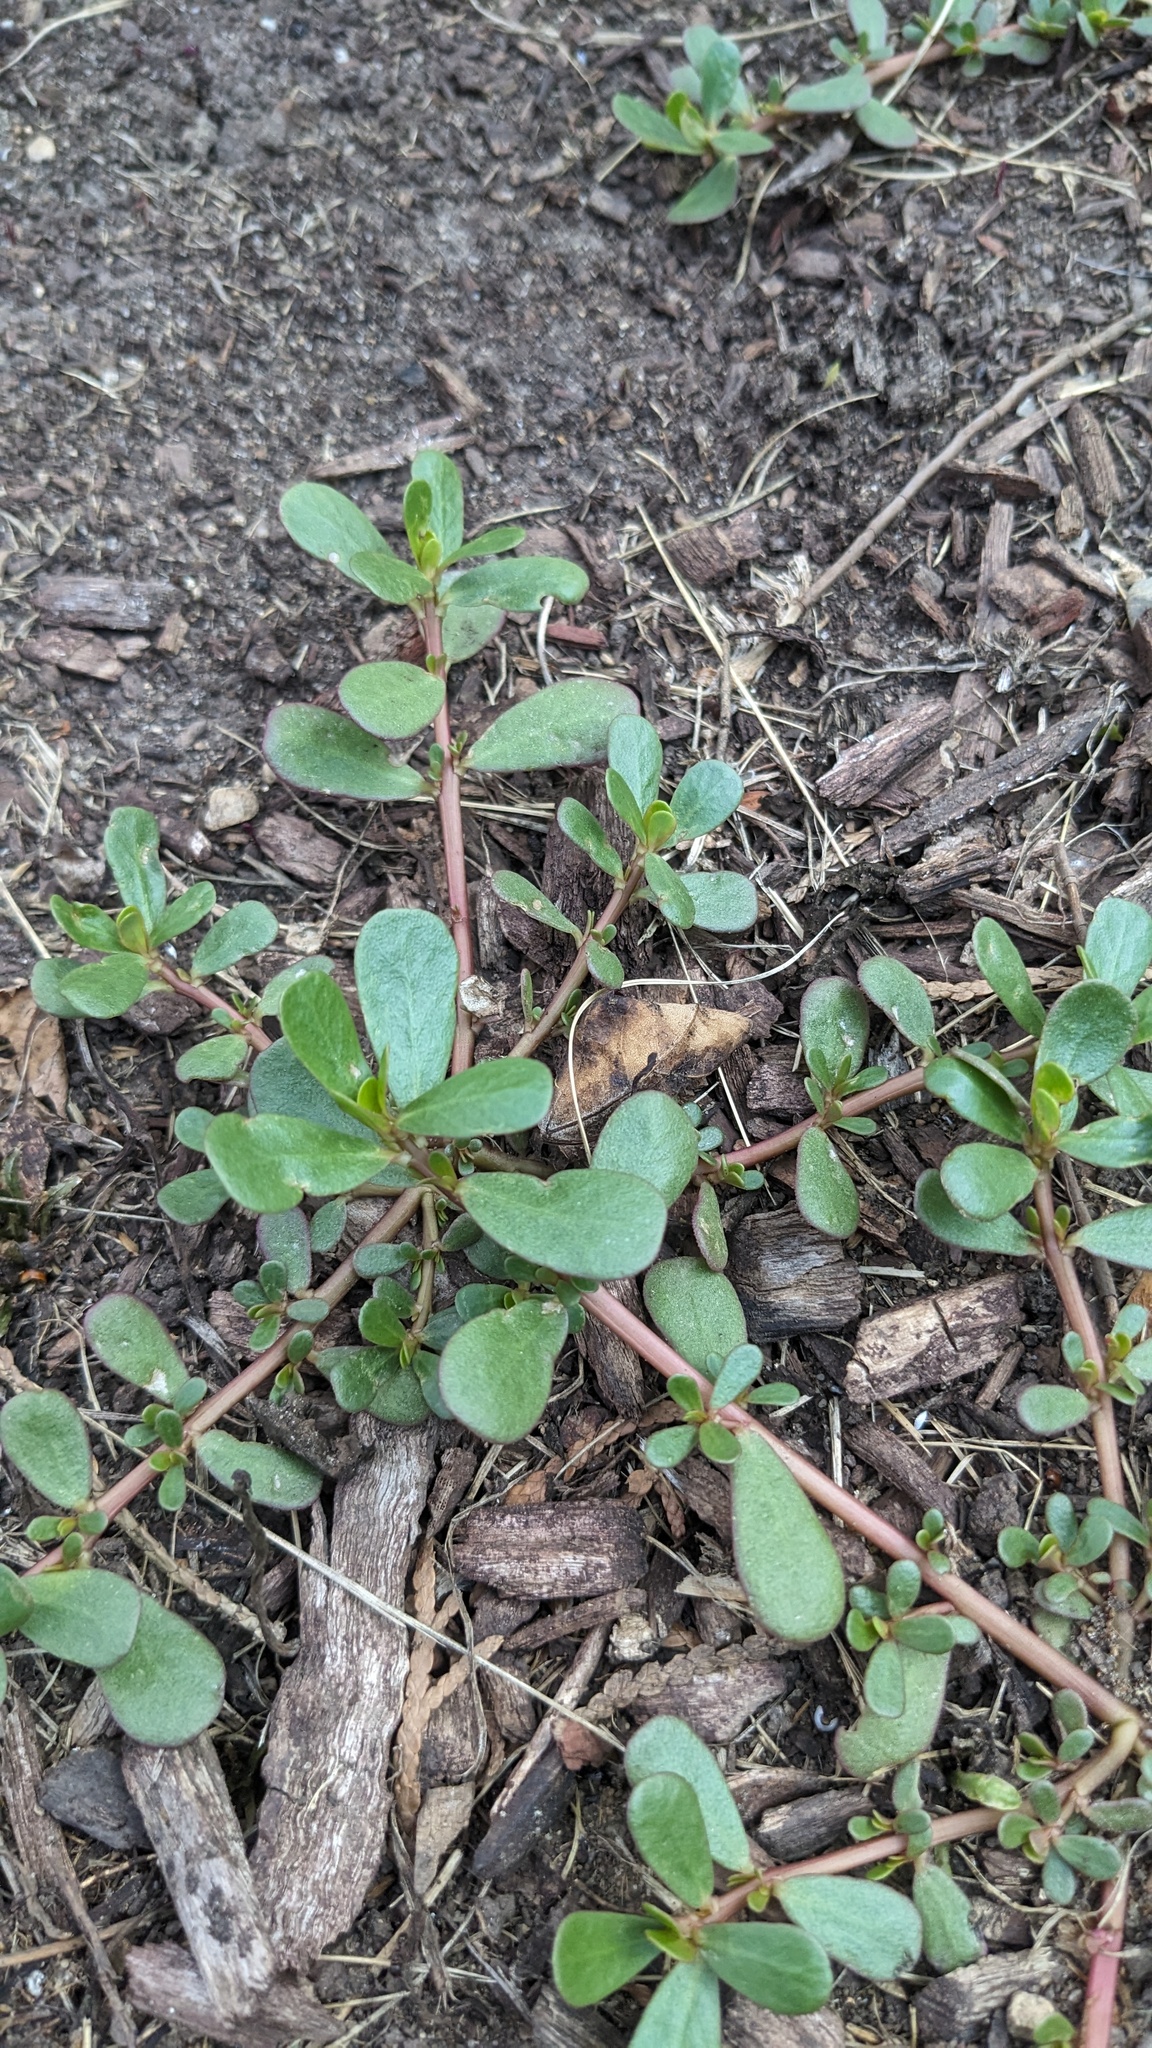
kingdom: Plantae
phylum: Tracheophyta
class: Magnoliopsida
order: Caryophyllales
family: Portulacaceae
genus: Portulaca
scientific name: Portulaca oleracea
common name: Common purslane
